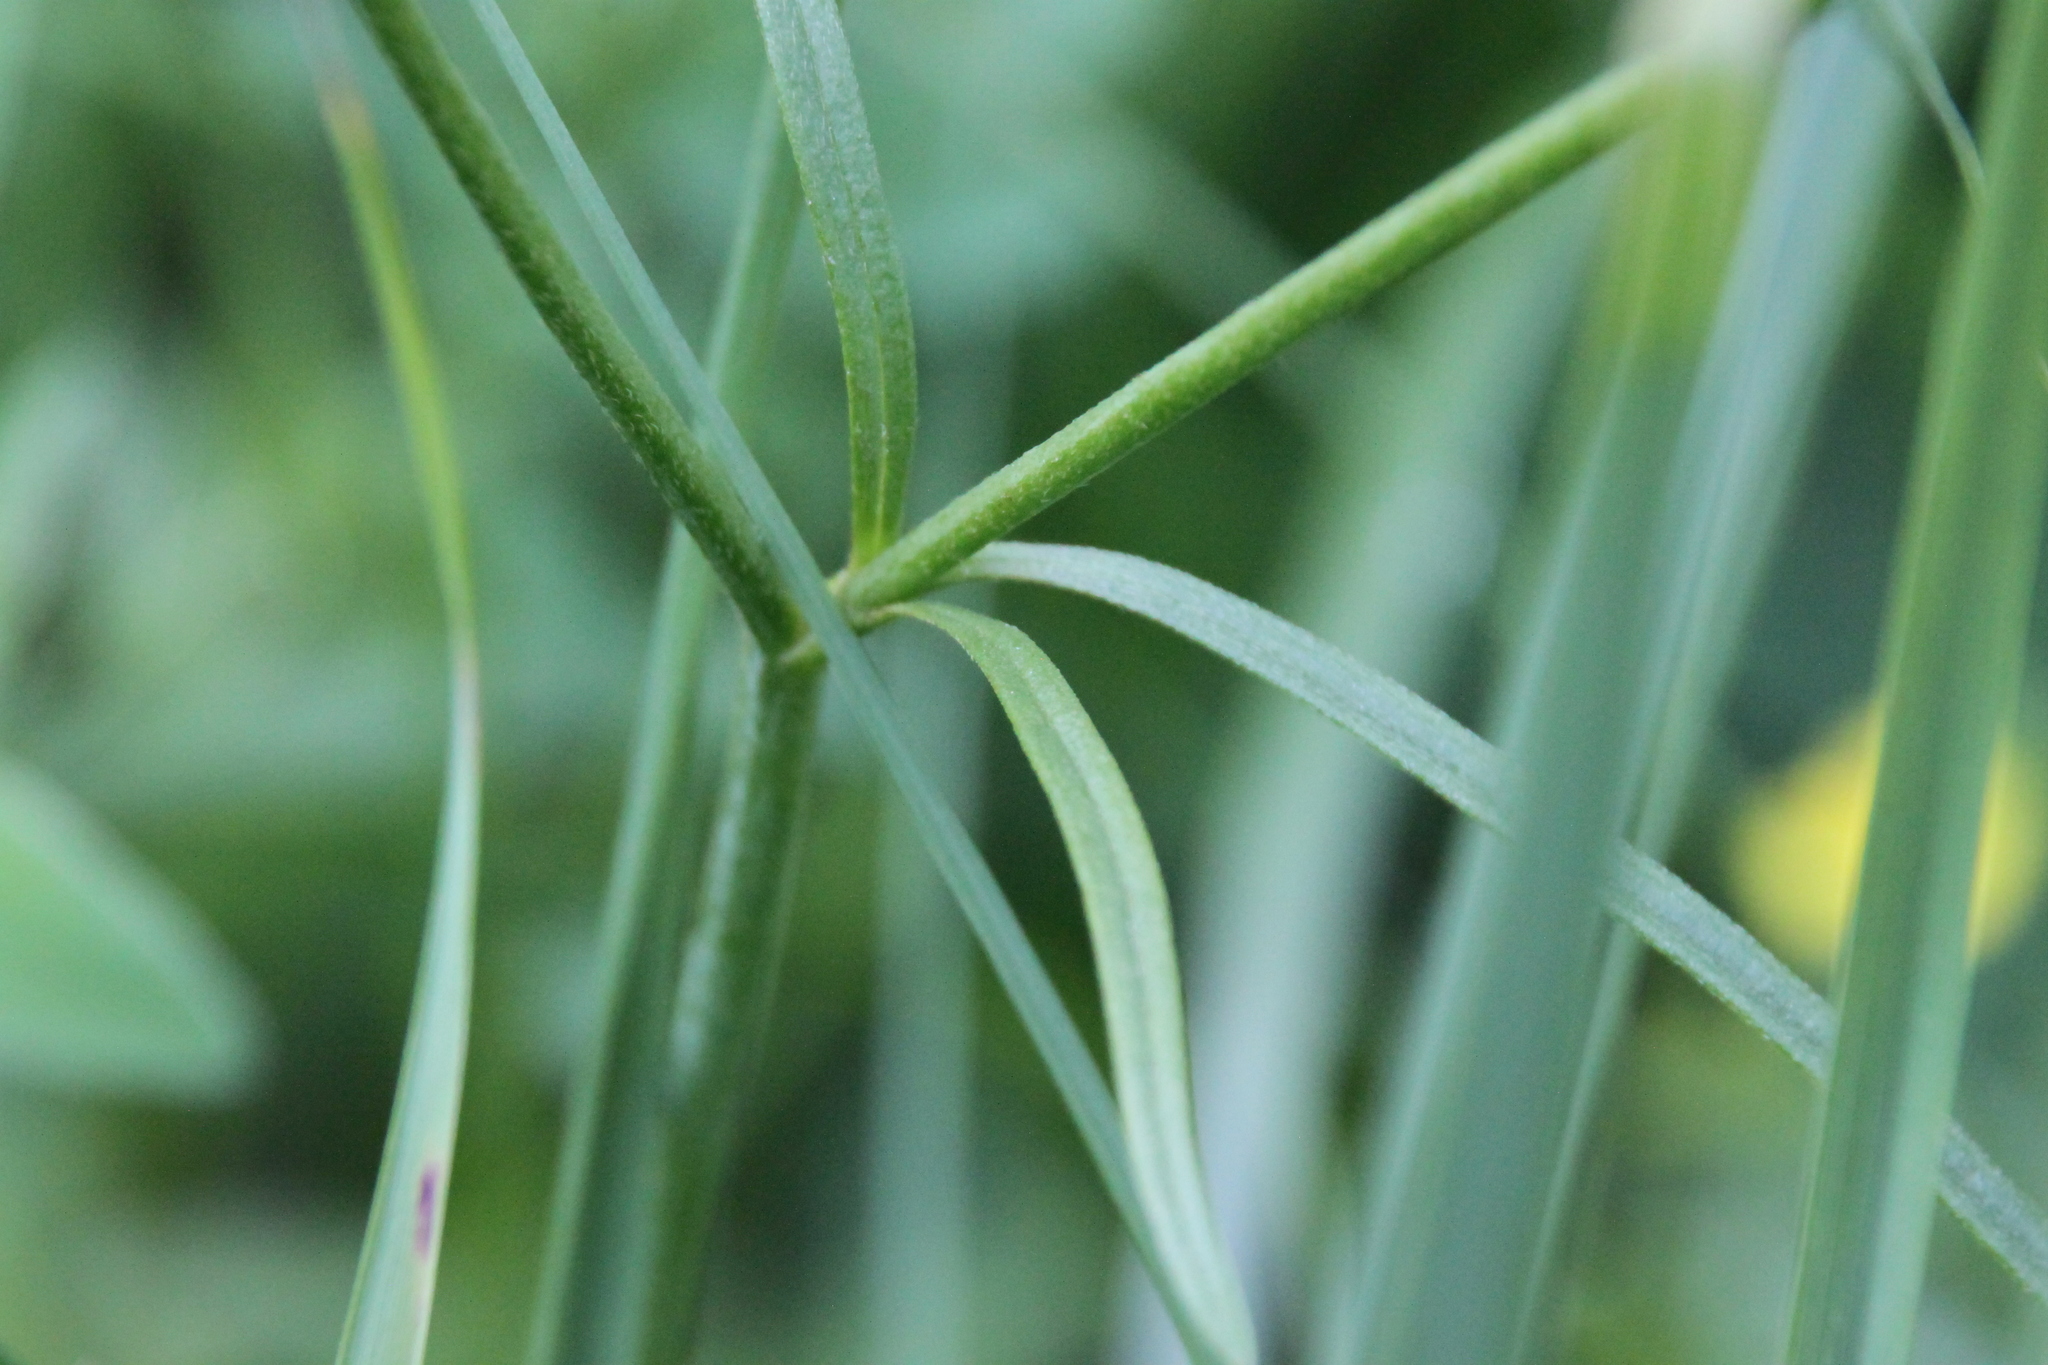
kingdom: Plantae
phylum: Tracheophyta
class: Magnoliopsida
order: Ranunculales
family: Ranunculaceae
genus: Ranunculus
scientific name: Ranunculus acris
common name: Meadow buttercup
